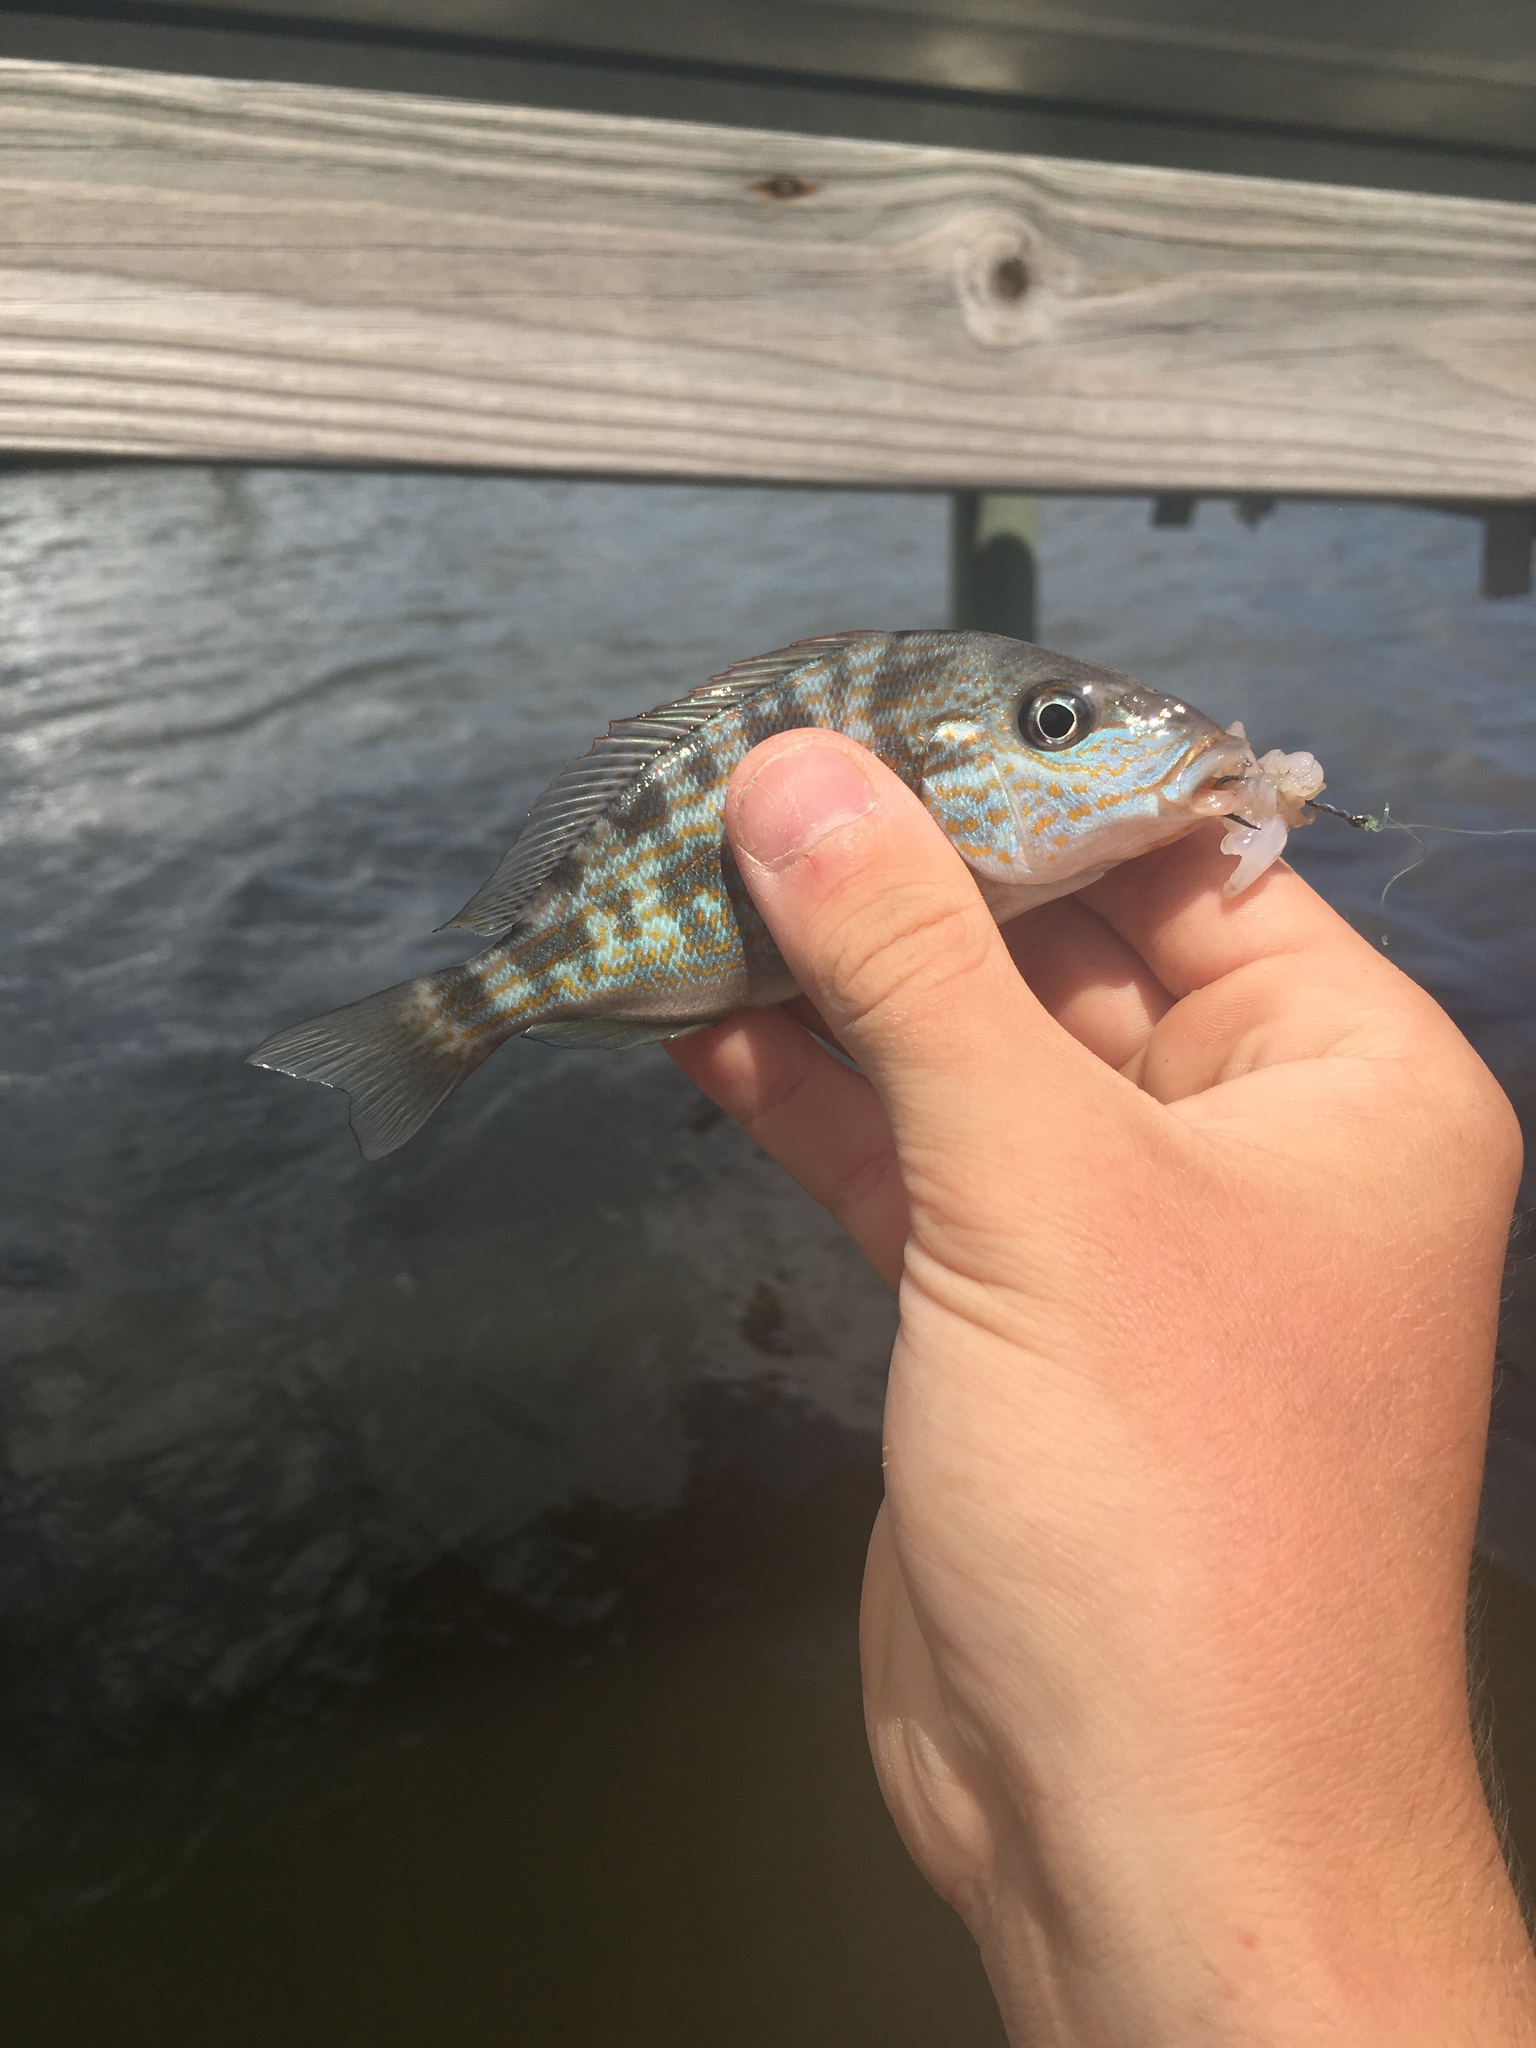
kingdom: Animalia
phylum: Chordata
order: Perciformes
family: Haemulidae
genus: Orthopristis
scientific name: Orthopristis chrysoptera
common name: Pigfish
